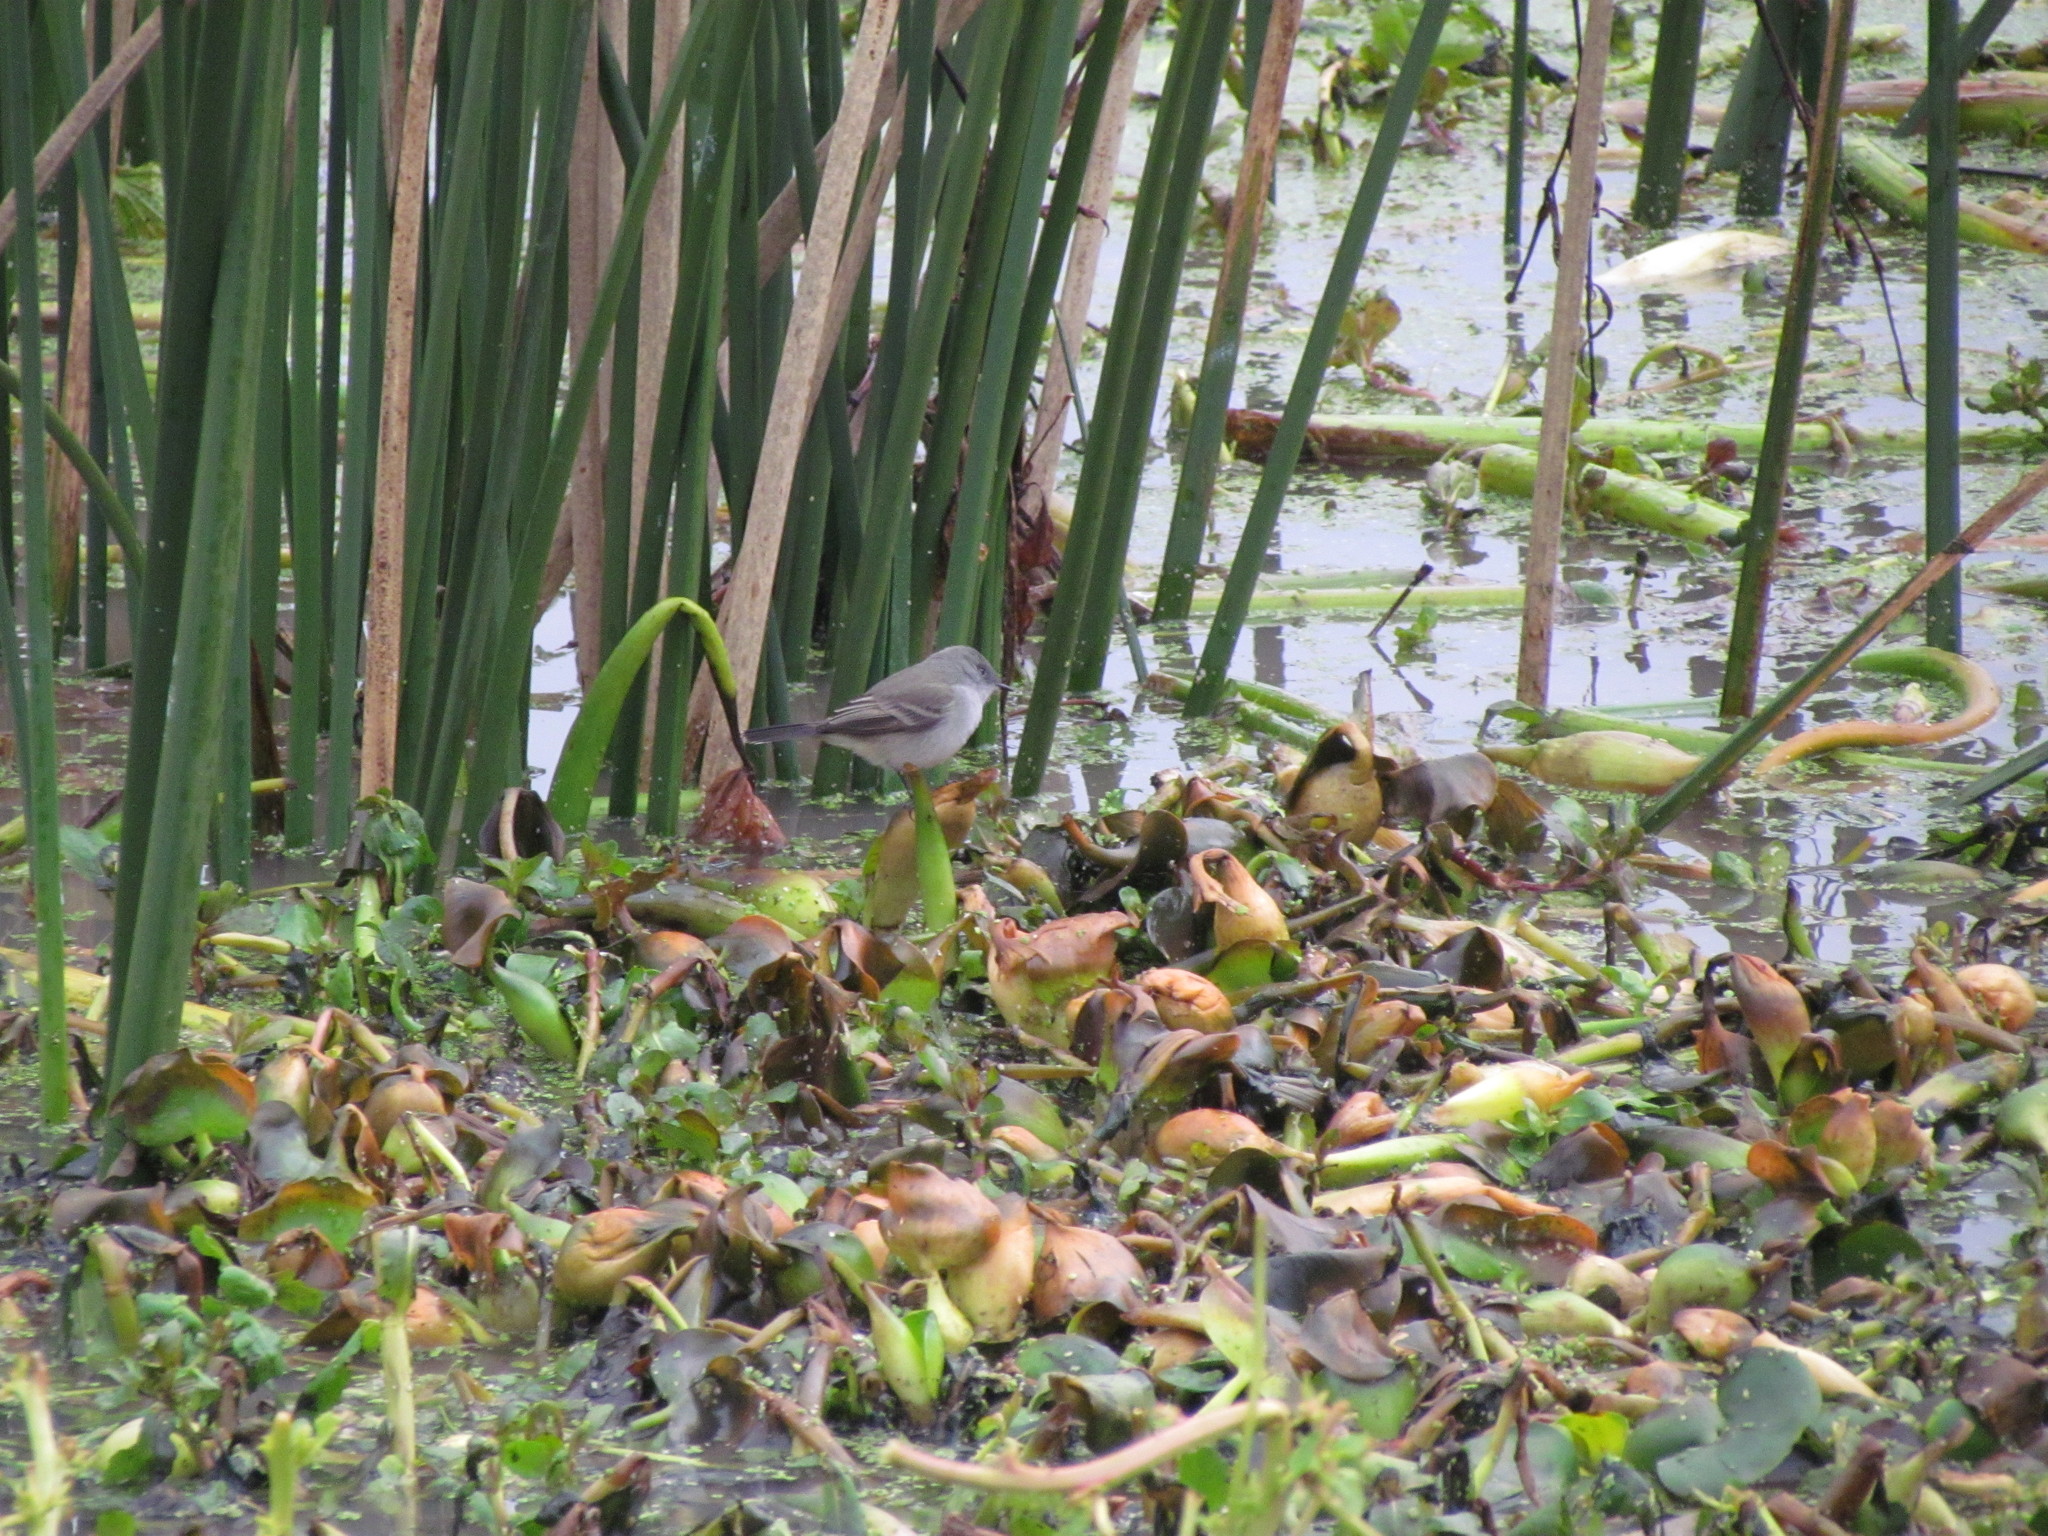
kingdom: Animalia
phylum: Chordata
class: Aves
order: Passeriformes
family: Tyrannidae
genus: Serpophaga
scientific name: Serpophaga nigricans
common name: Sooty tyrannulet
